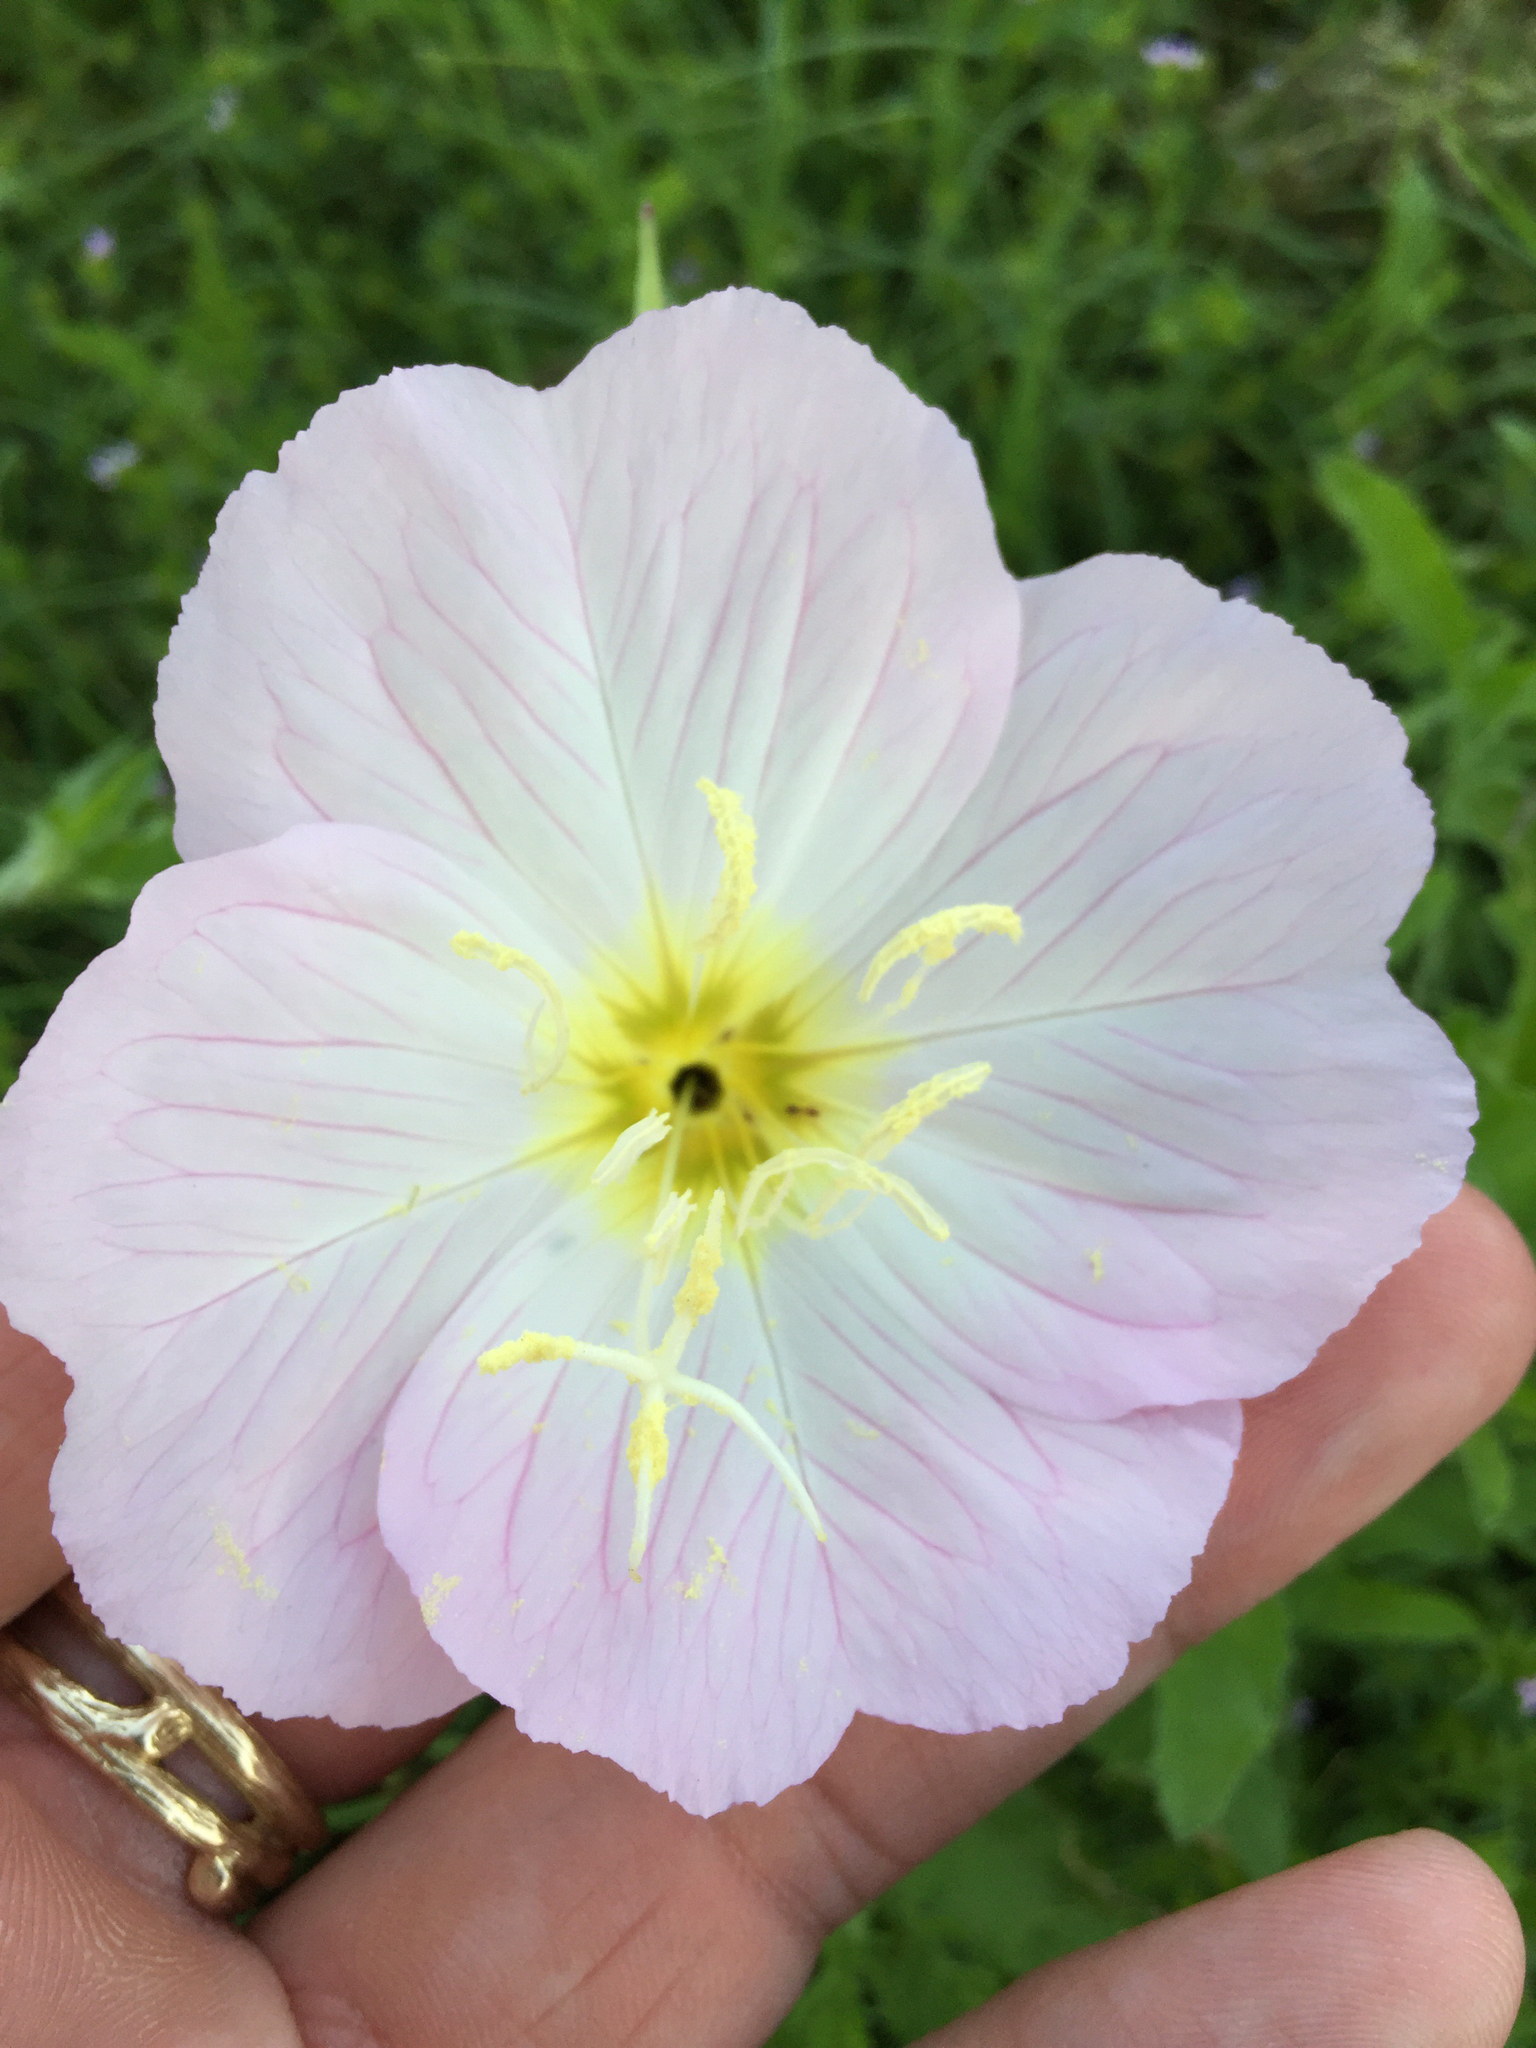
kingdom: Plantae
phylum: Tracheophyta
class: Magnoliopsida
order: Myrtales
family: Onagraceae
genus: Oenothera
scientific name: Oenothera speciosa
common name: White evening-primrose
